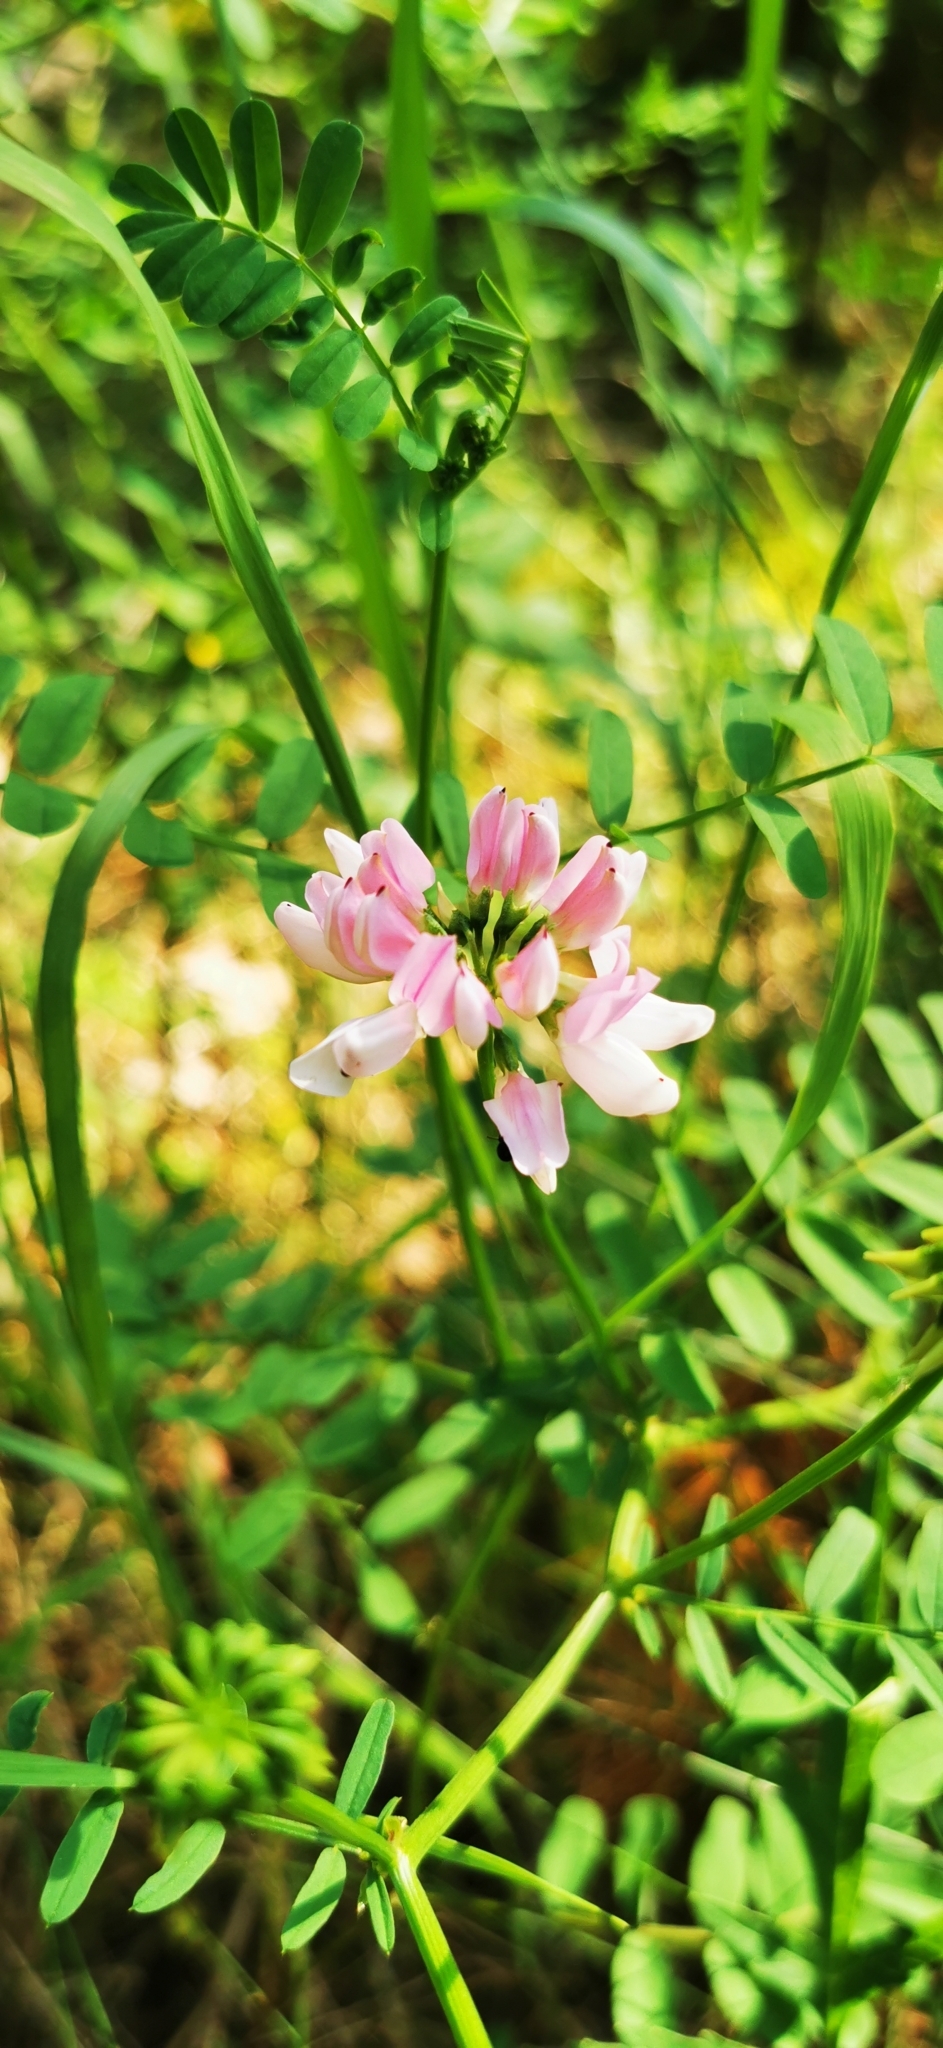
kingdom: Plantae
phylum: Tracheophyta
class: Magnoliopsida
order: Fabales
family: Fabaceae
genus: Coronilla
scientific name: Coronilla varia
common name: Crownvetch
